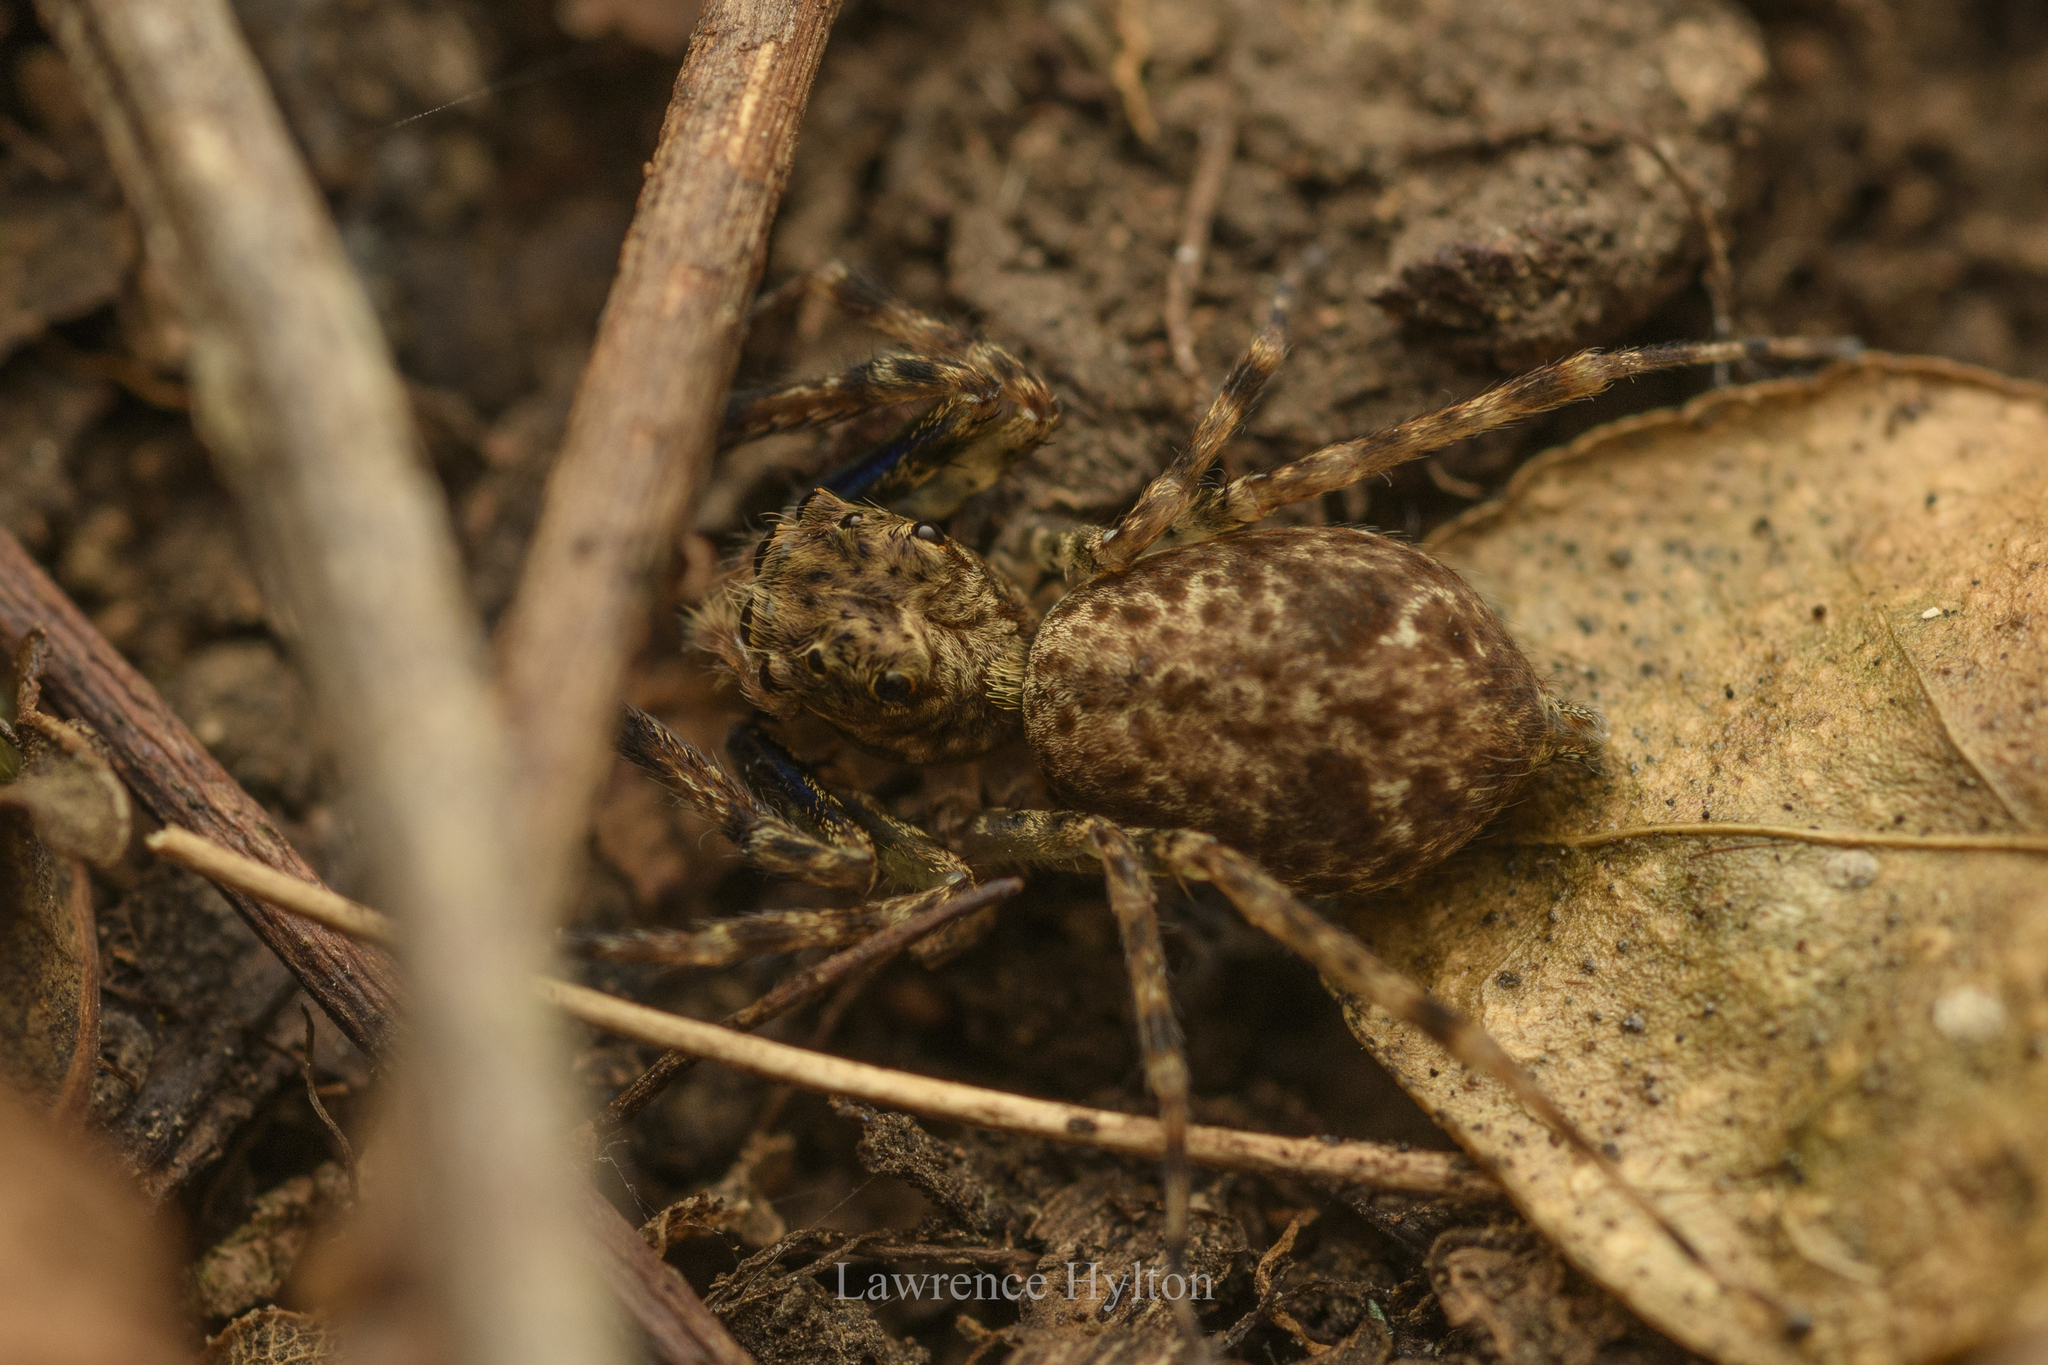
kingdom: Animalia
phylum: Arthropoda
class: Arachnida
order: Araneae
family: Salticidae
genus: Spartaeus
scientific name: Spartaeus zhangi
